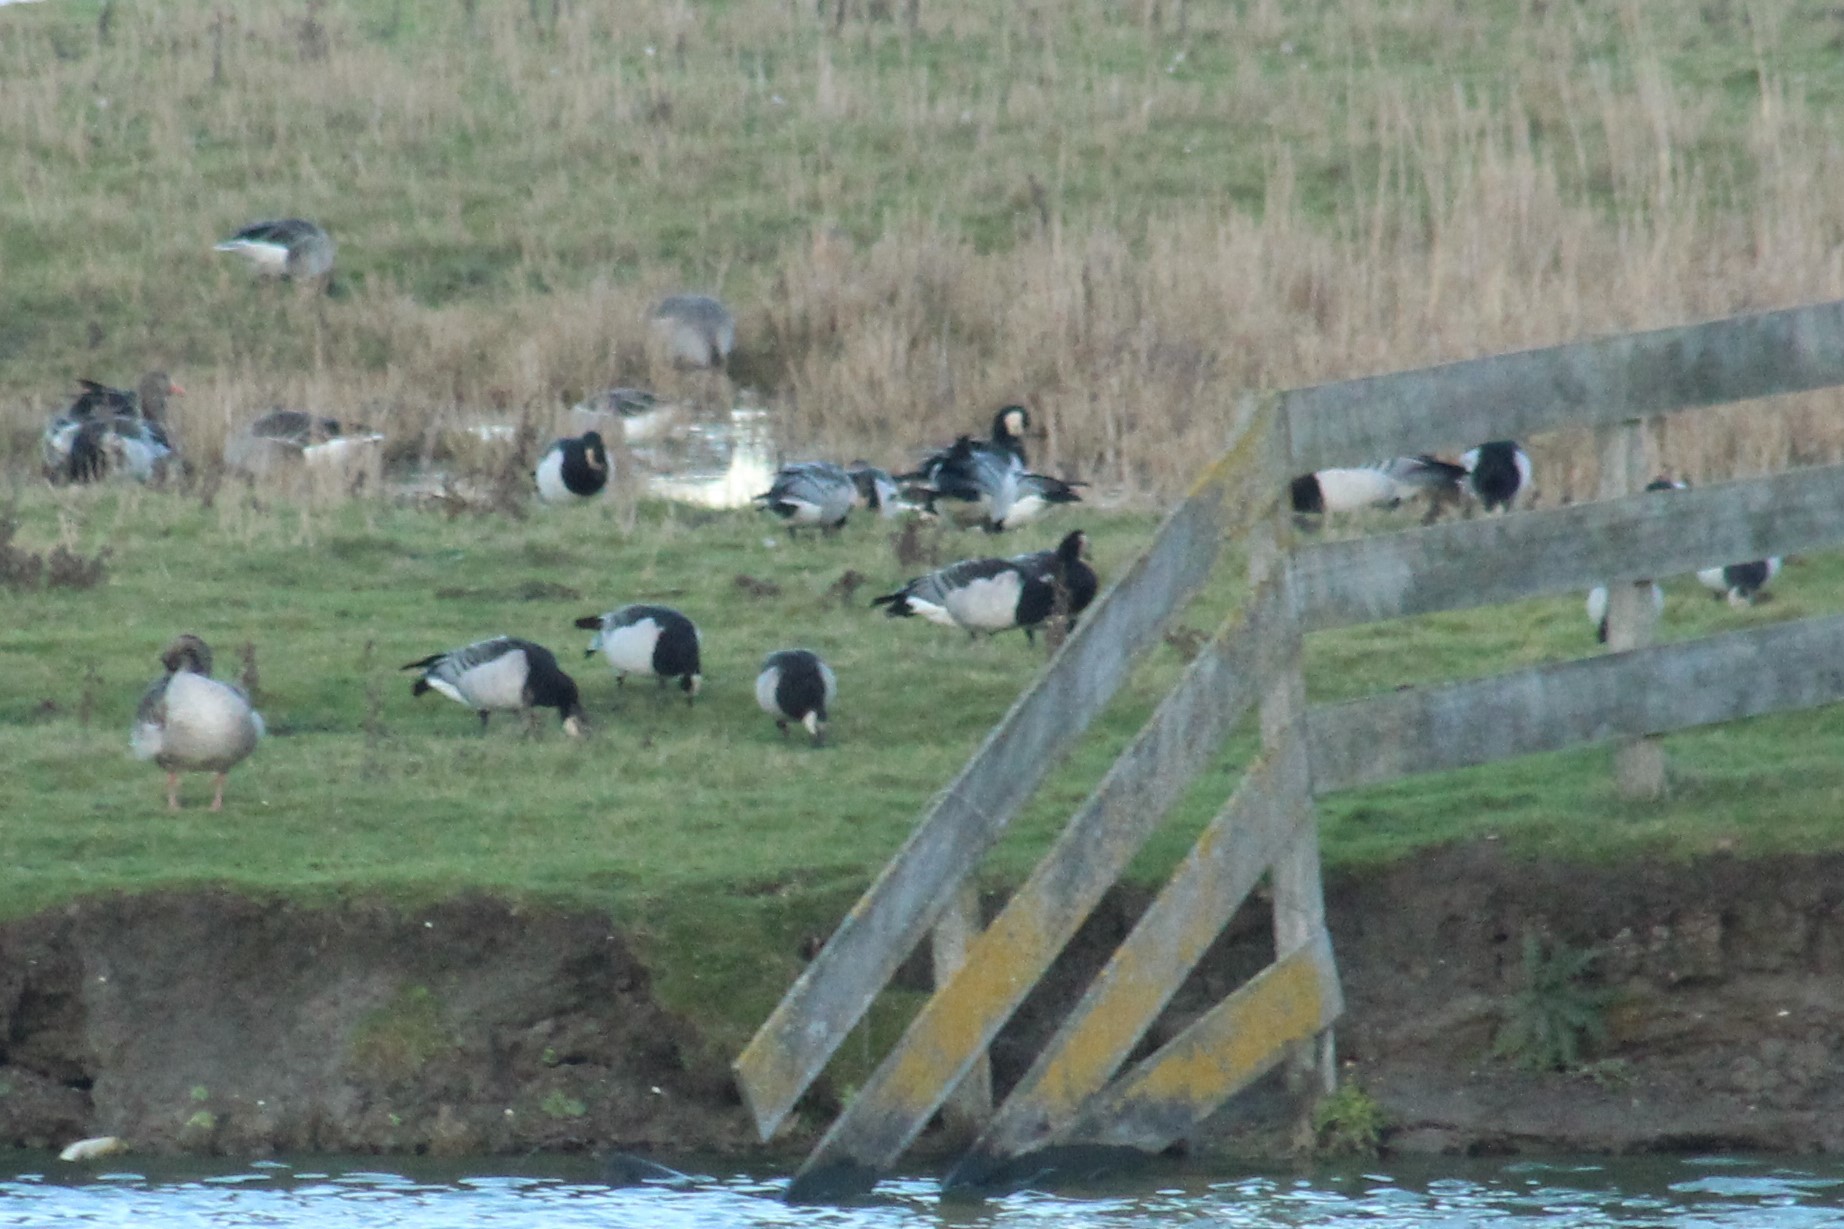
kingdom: Animalia
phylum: Chordata
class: Aves
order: Anseriformes
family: Anatidae
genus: Branta
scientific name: Branta leucopsis
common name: Barnacle goose
